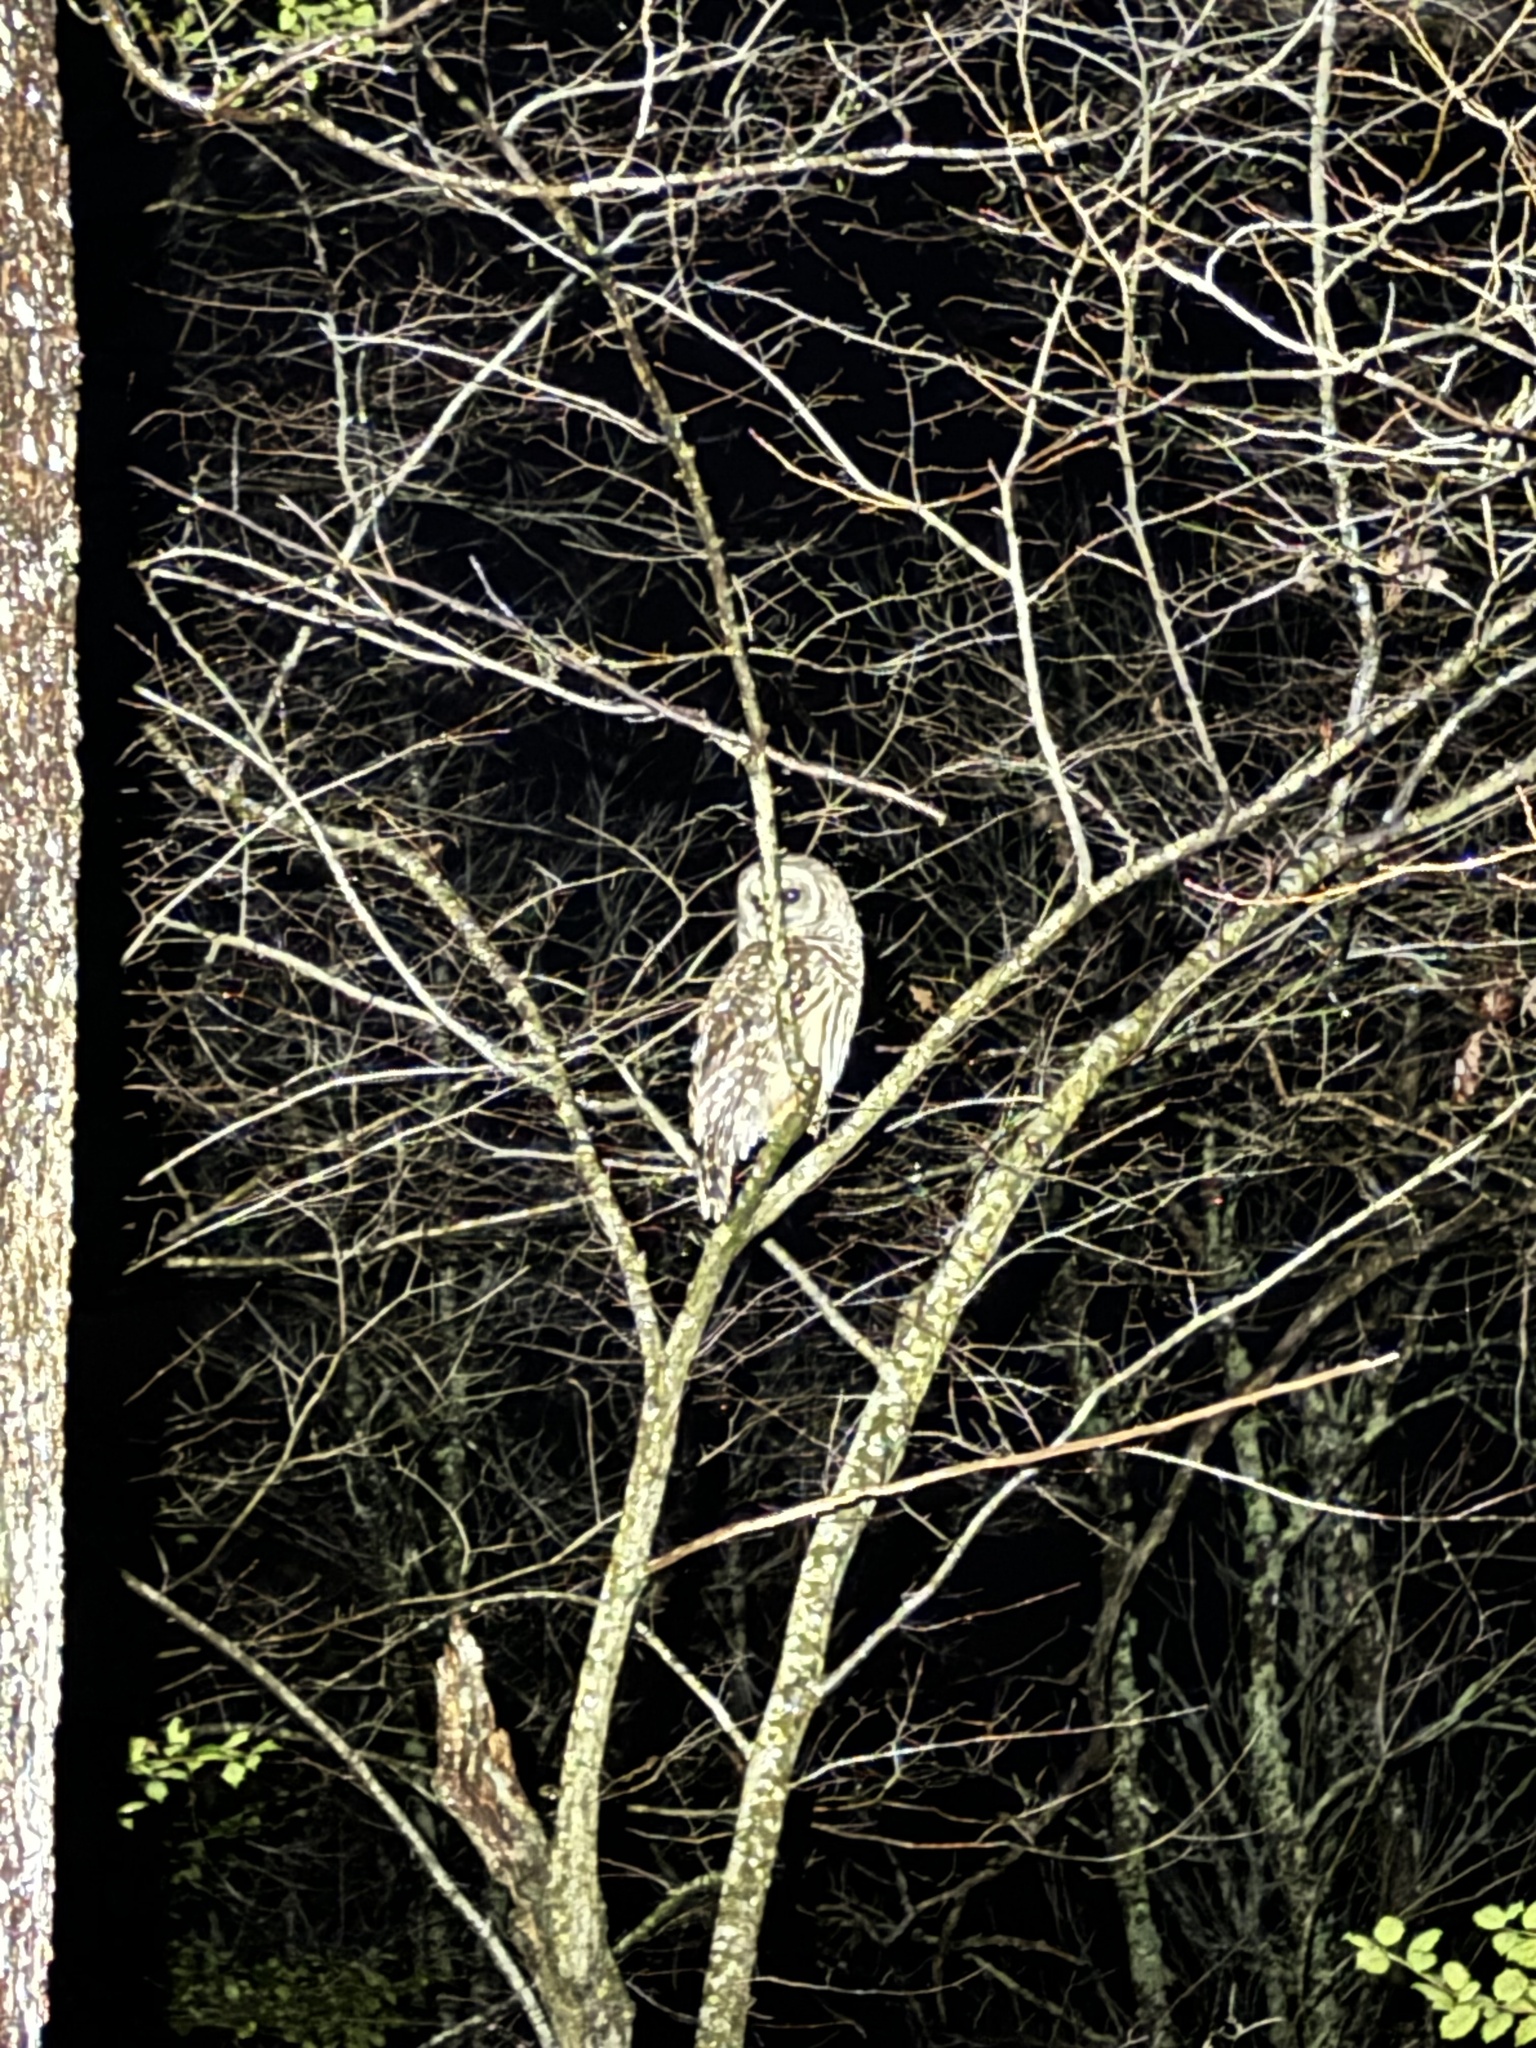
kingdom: Animalia
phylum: Chordata
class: Aves
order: Strigiformes
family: Strigidae
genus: Strix
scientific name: Strix varia
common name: Barred owl
